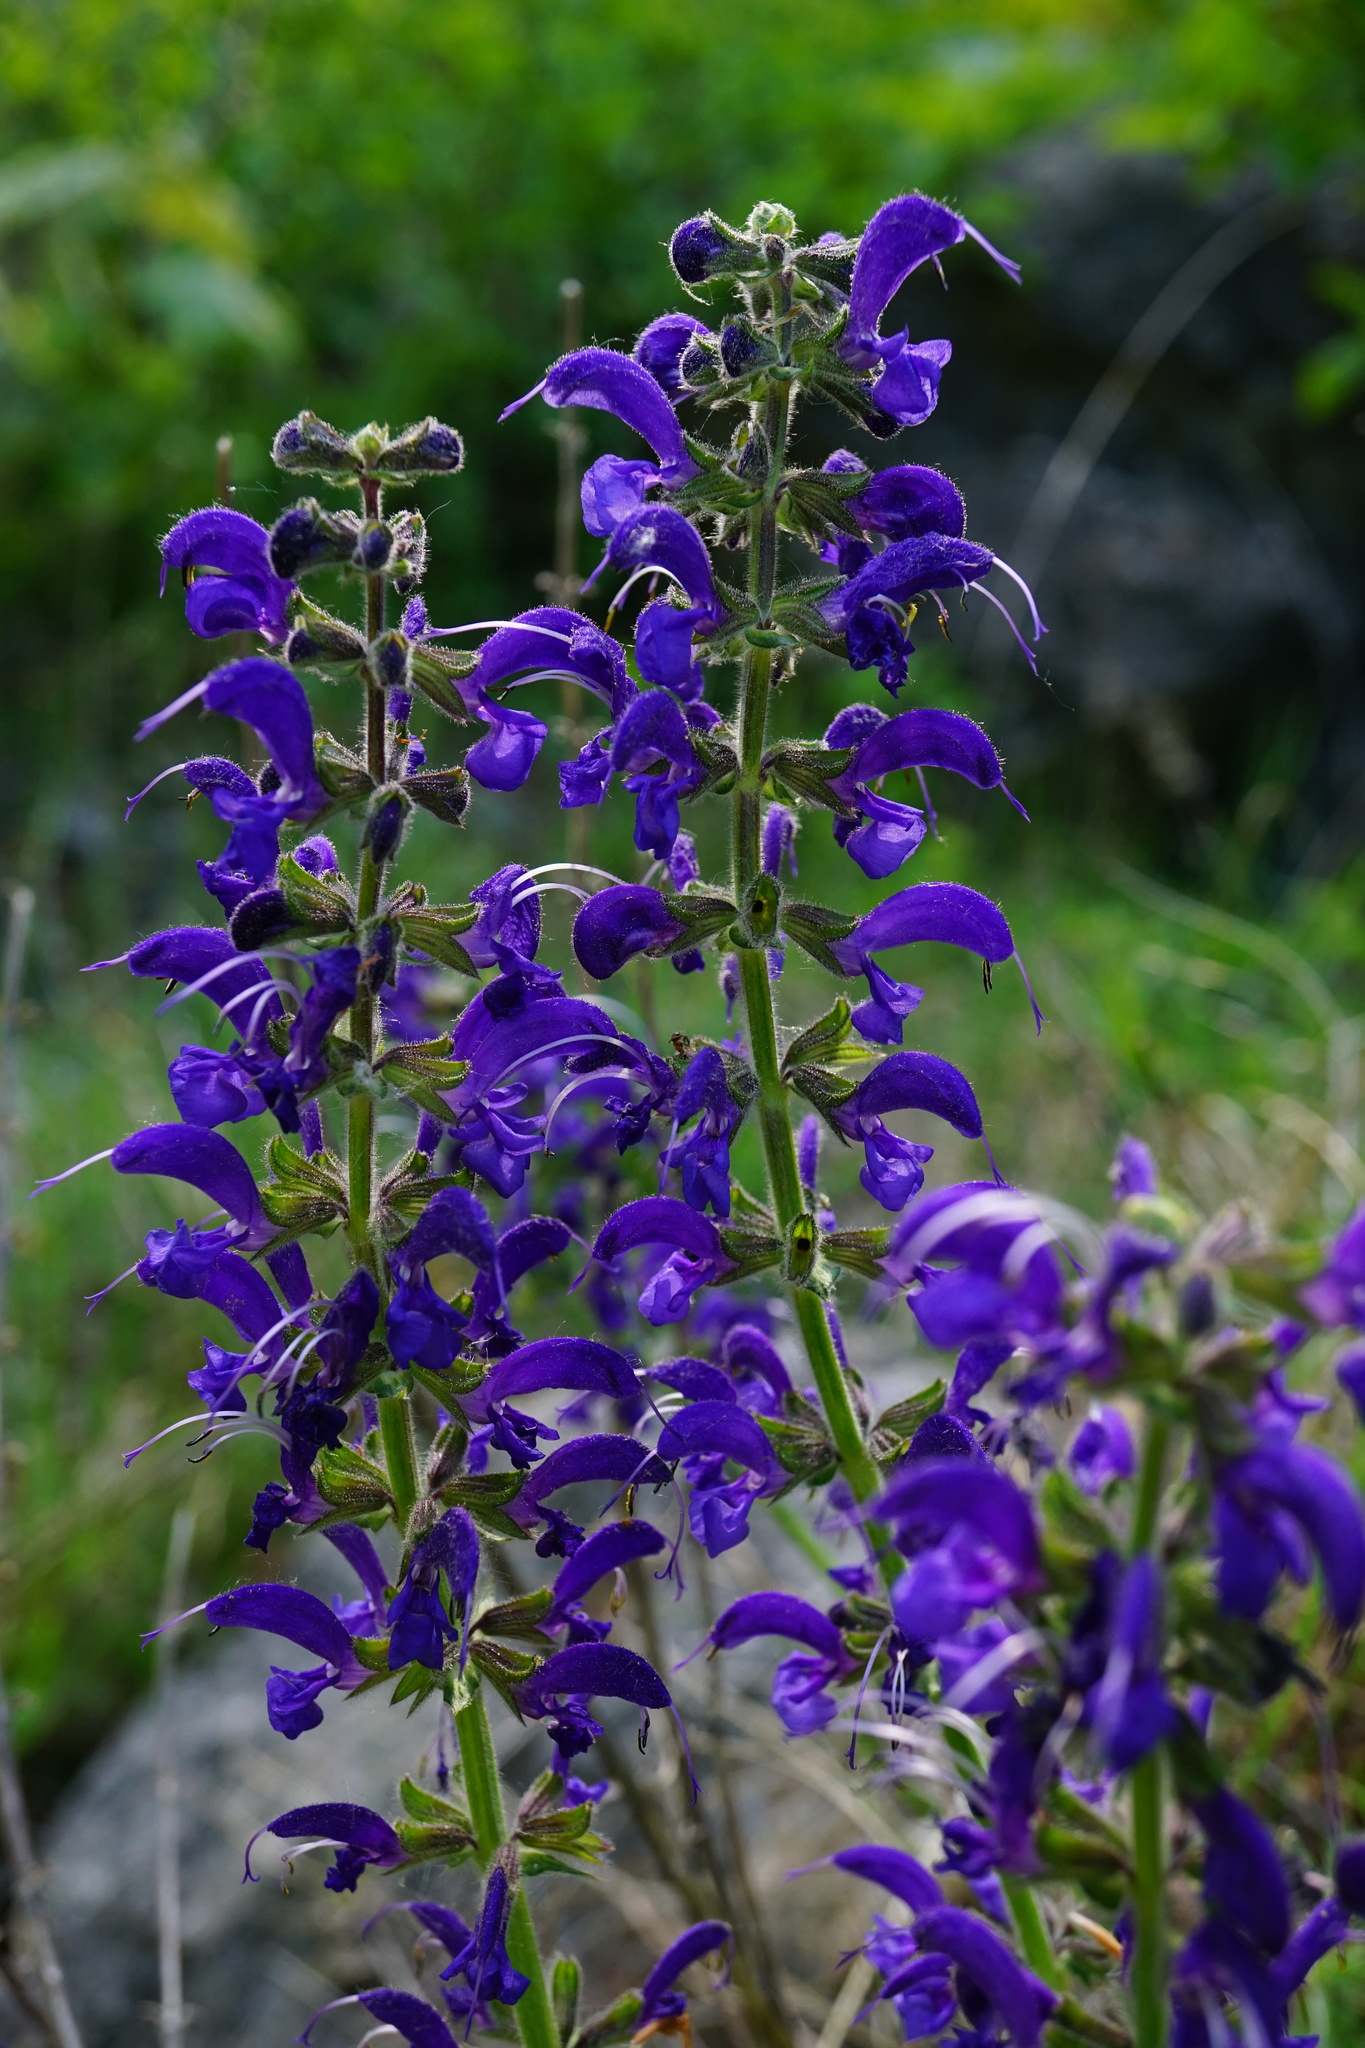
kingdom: Plantae
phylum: Tracheophyta
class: Magnoliopsida
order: Lamiales
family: Lamiaceae
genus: Salvia
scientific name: Salvia pratensis
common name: Meadow sage
